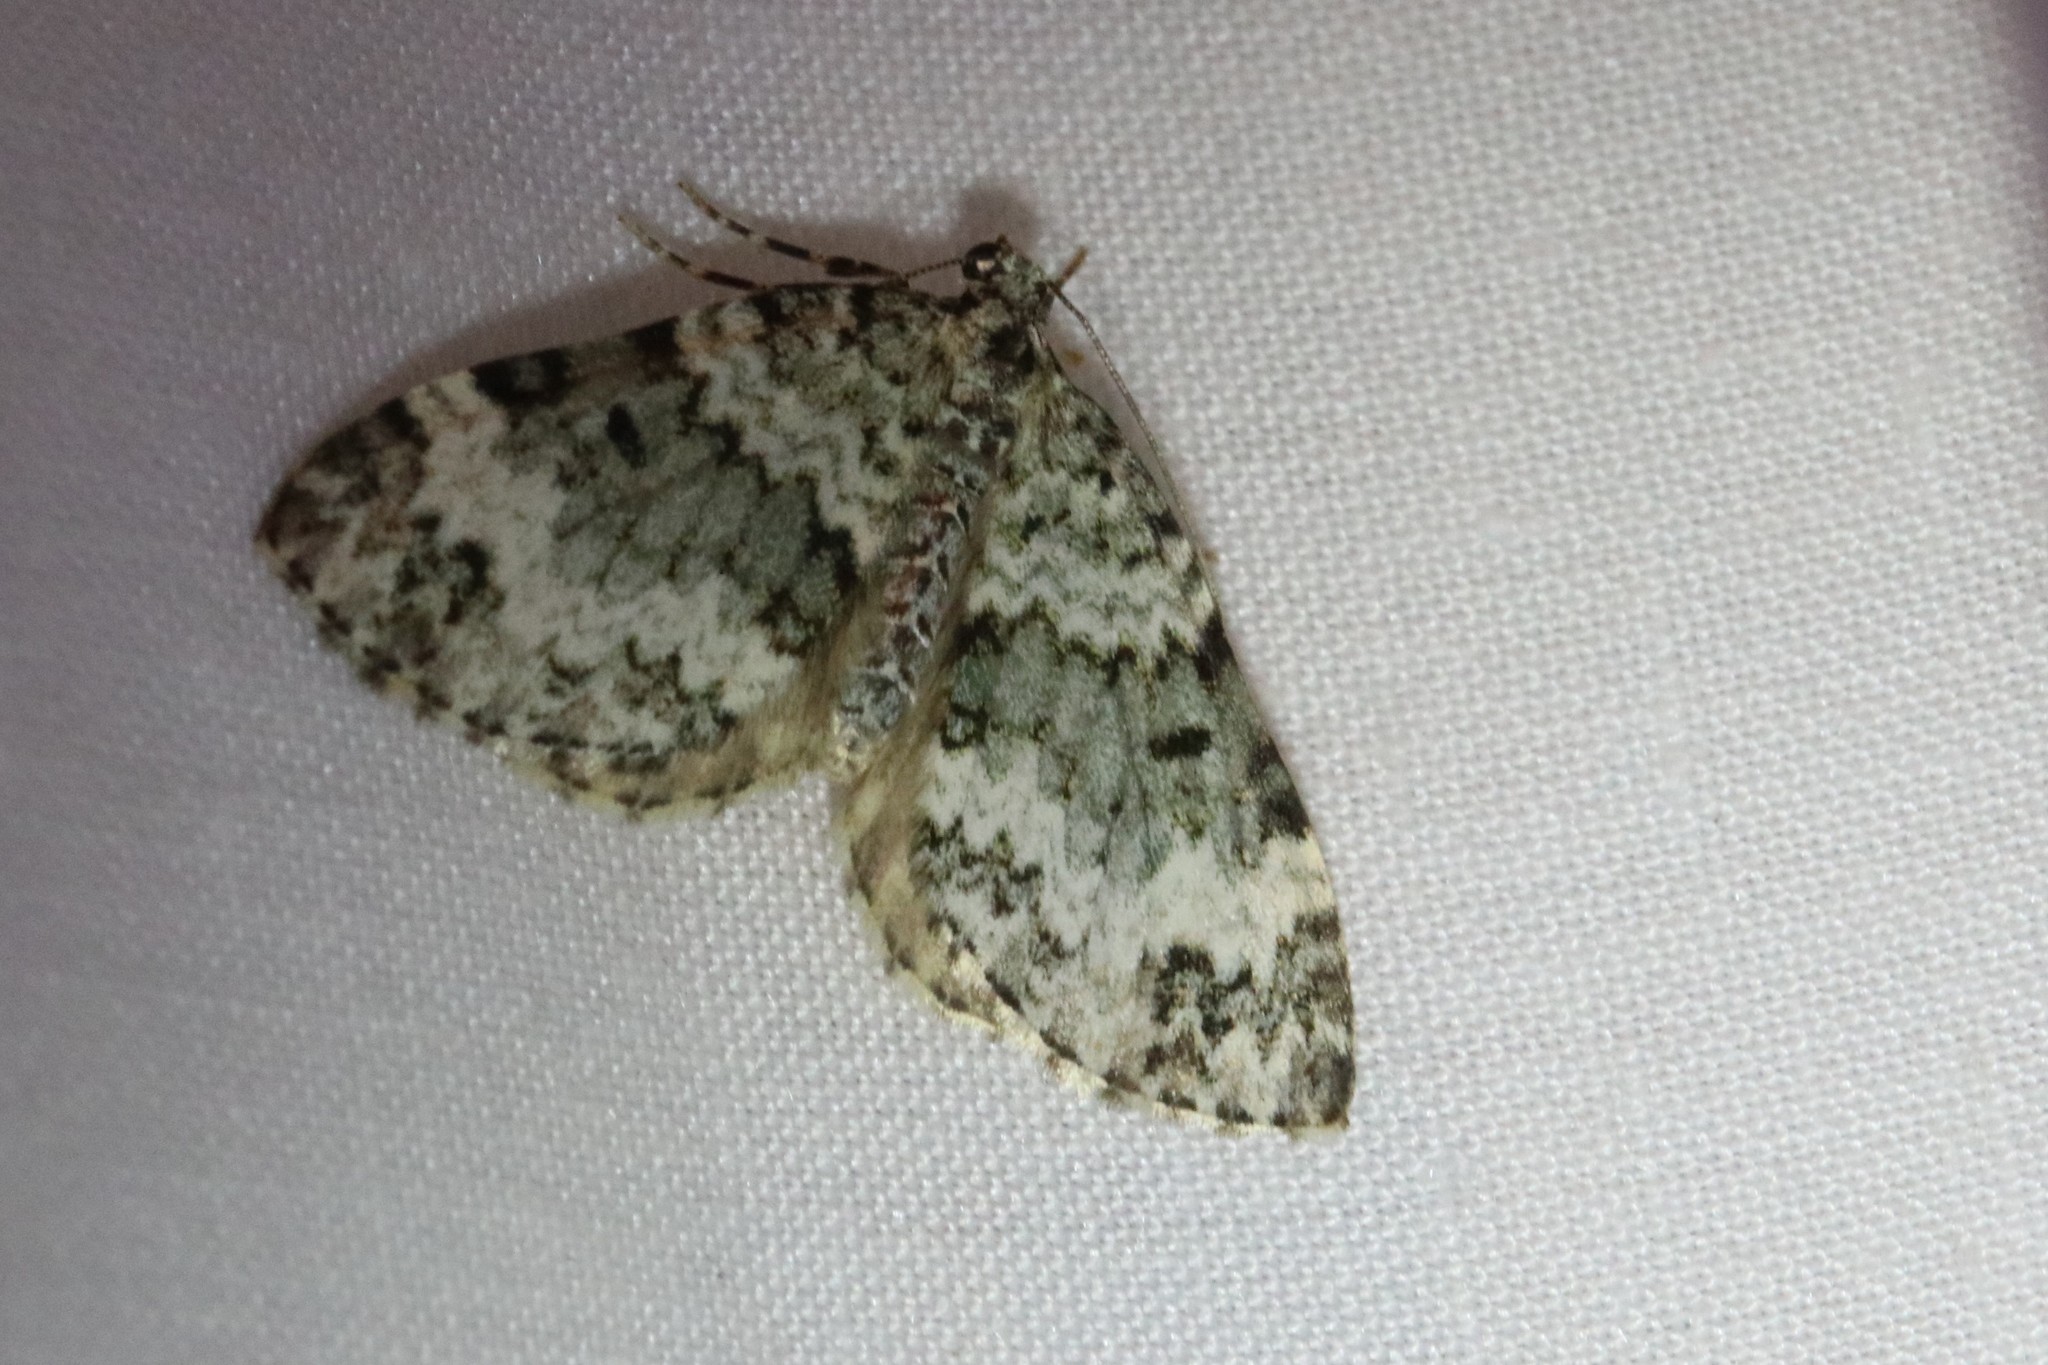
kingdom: Animalia
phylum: Arthropoda
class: Insecta
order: Lepidoptera
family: Geometridae
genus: Spargania
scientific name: Spargania magnoliata
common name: Double-banded carpet
